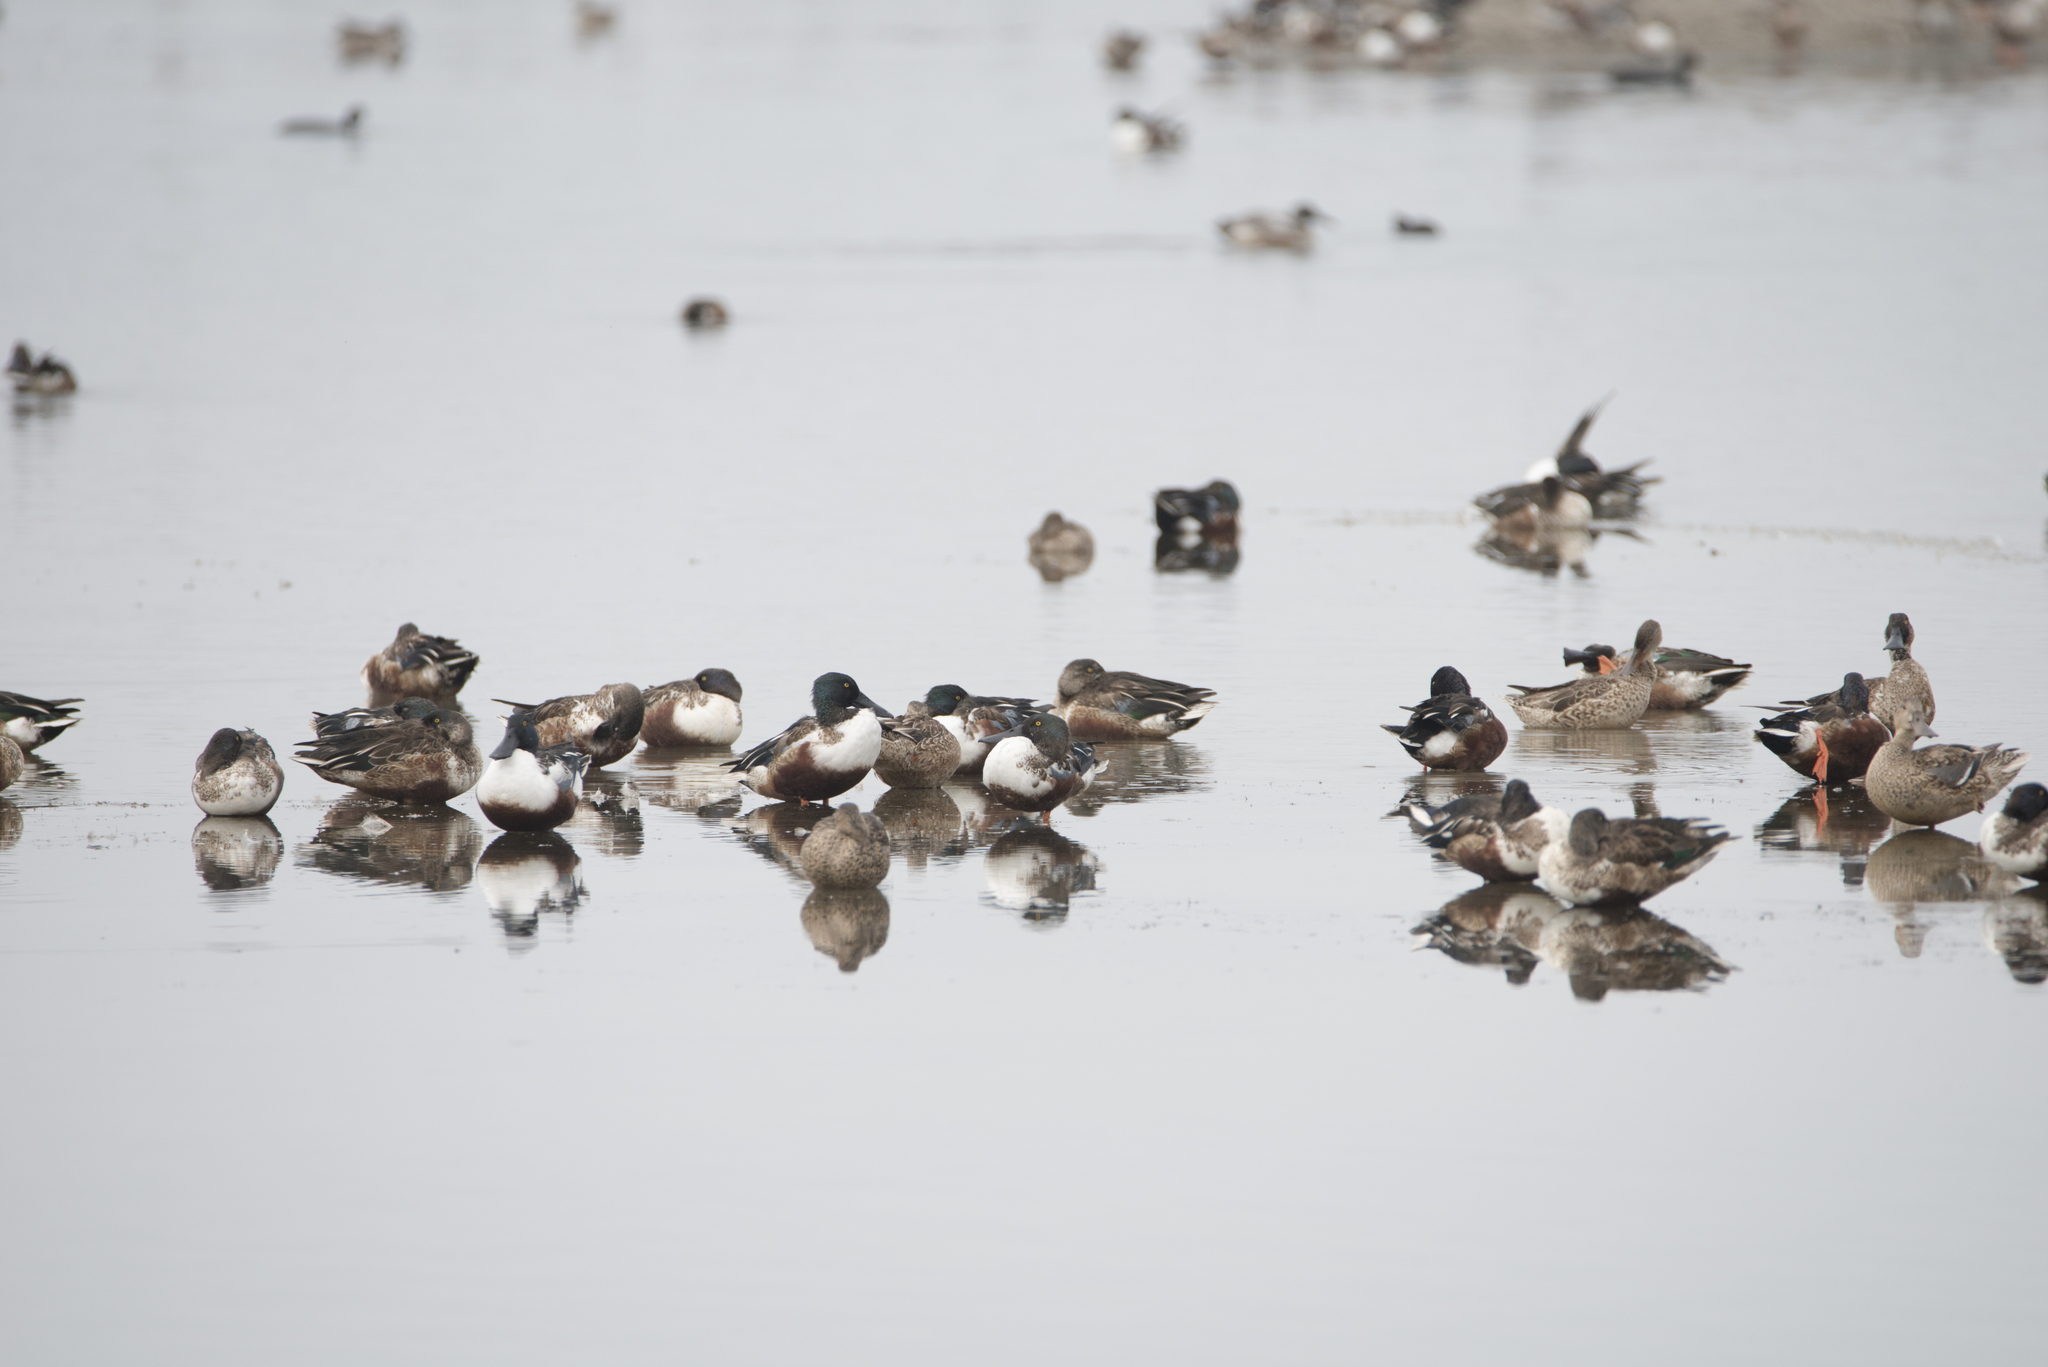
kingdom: Animalia
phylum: Chordata
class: Aves
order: Anseriformes
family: Anatidae
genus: Spatula
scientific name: Spatula clypeata
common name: Northern shoveler
